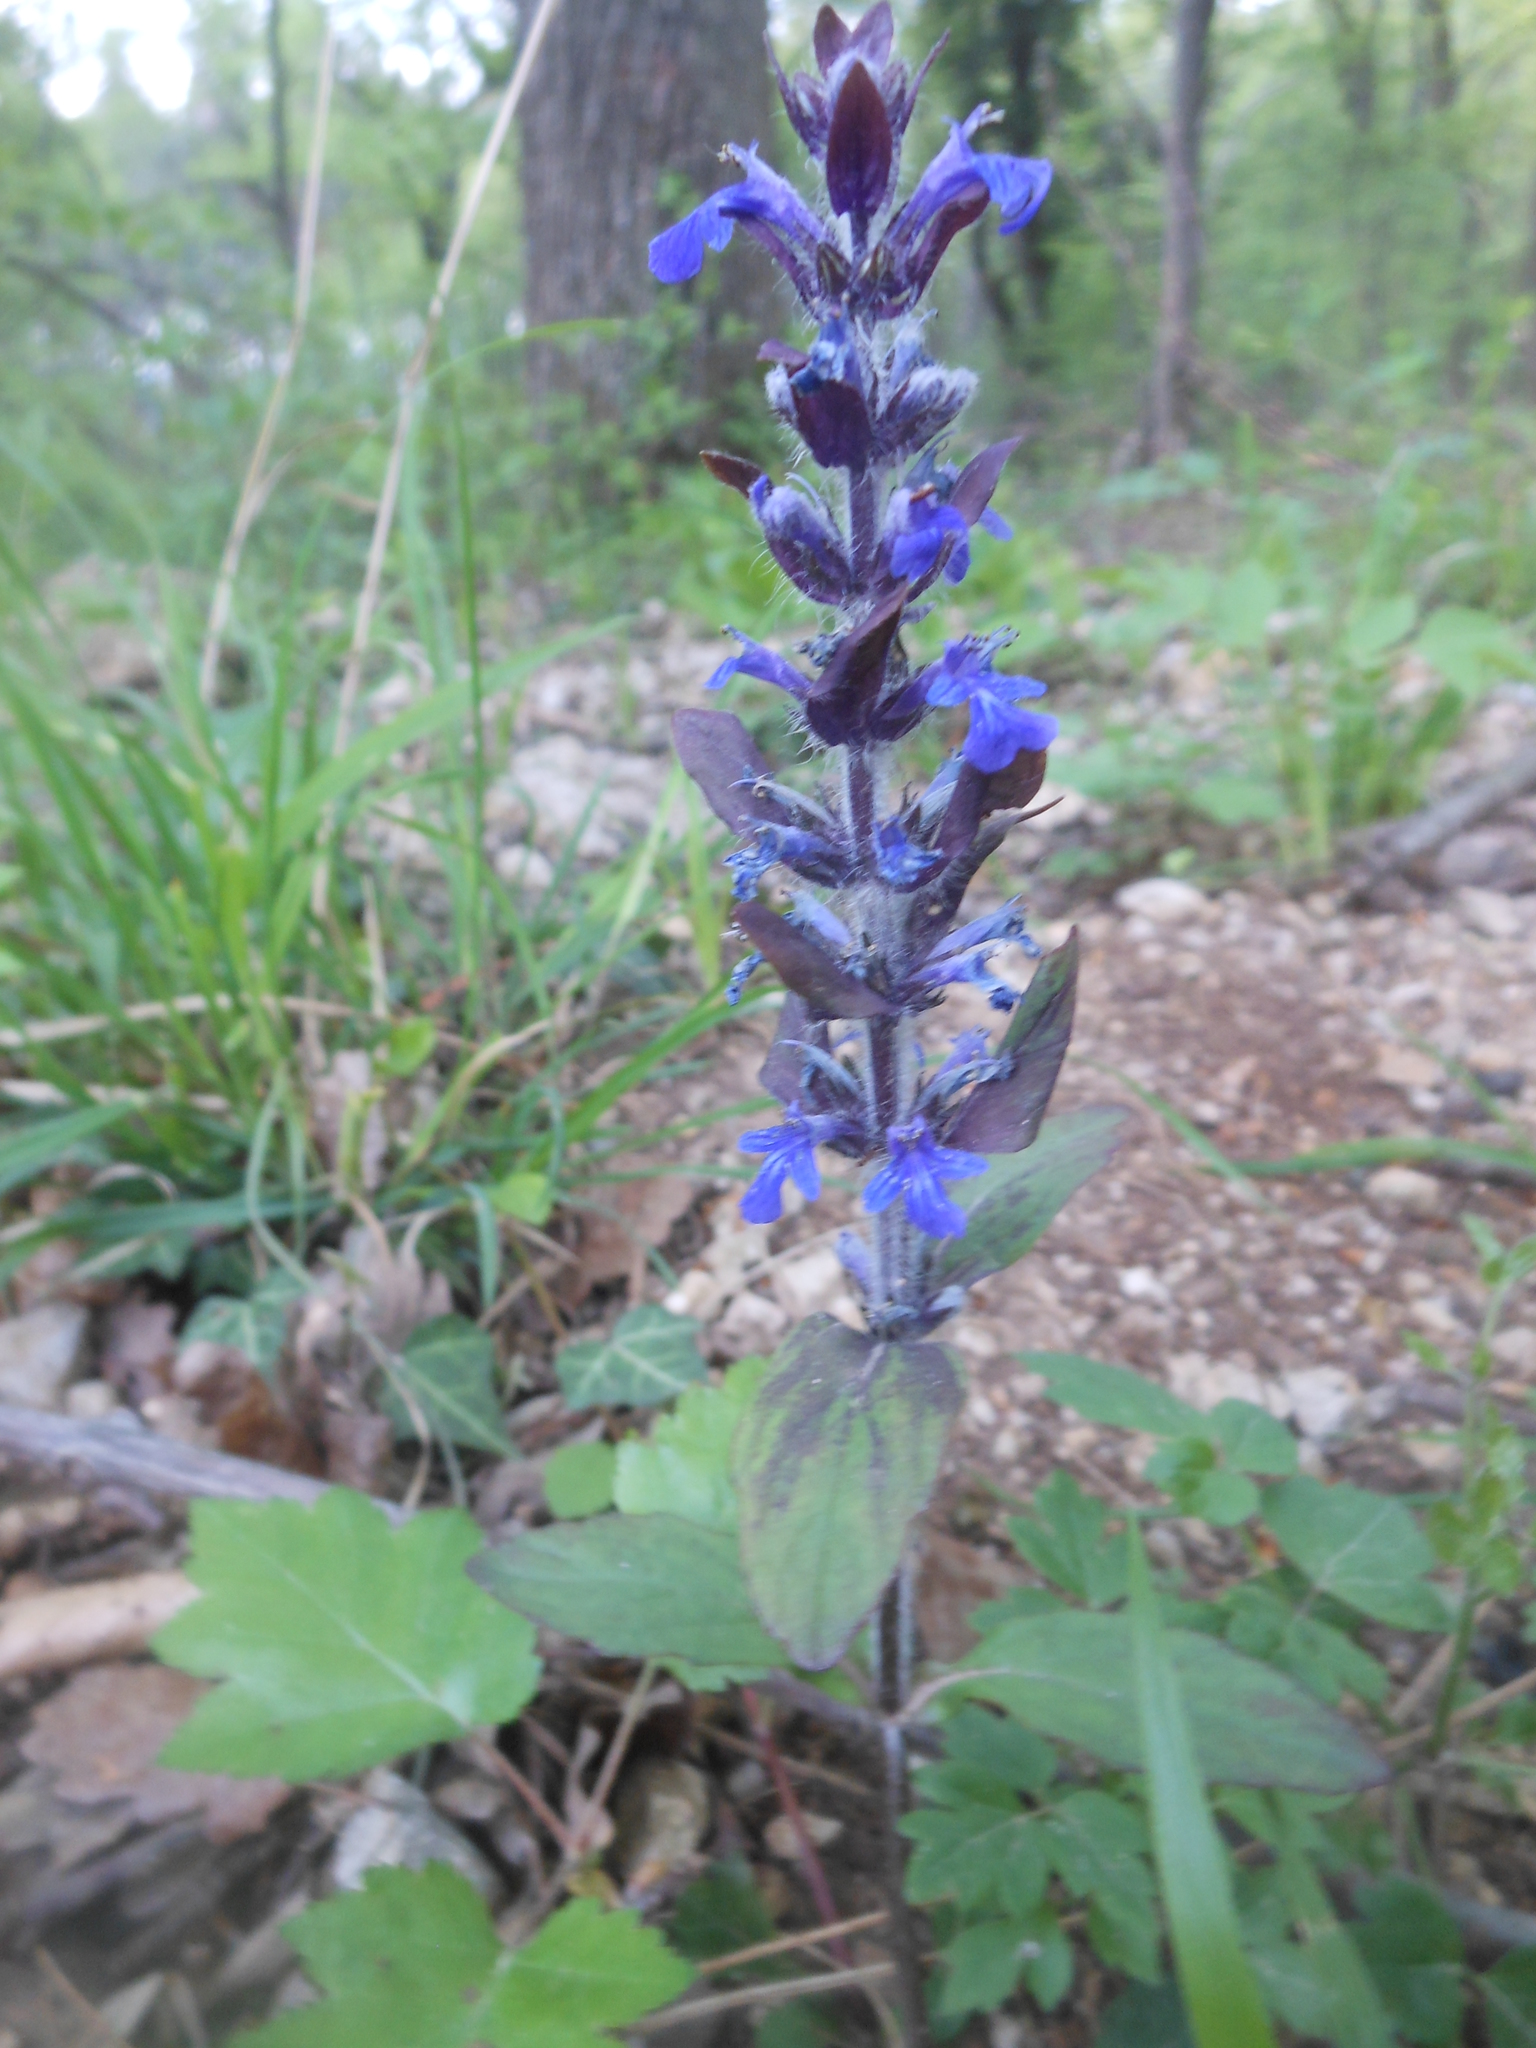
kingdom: Plantae
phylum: Tracheophyta
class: Magnoliopsida
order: Lamiales
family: Lamiaceae
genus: Ajuga
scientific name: Ajuga reptans
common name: Bugle
